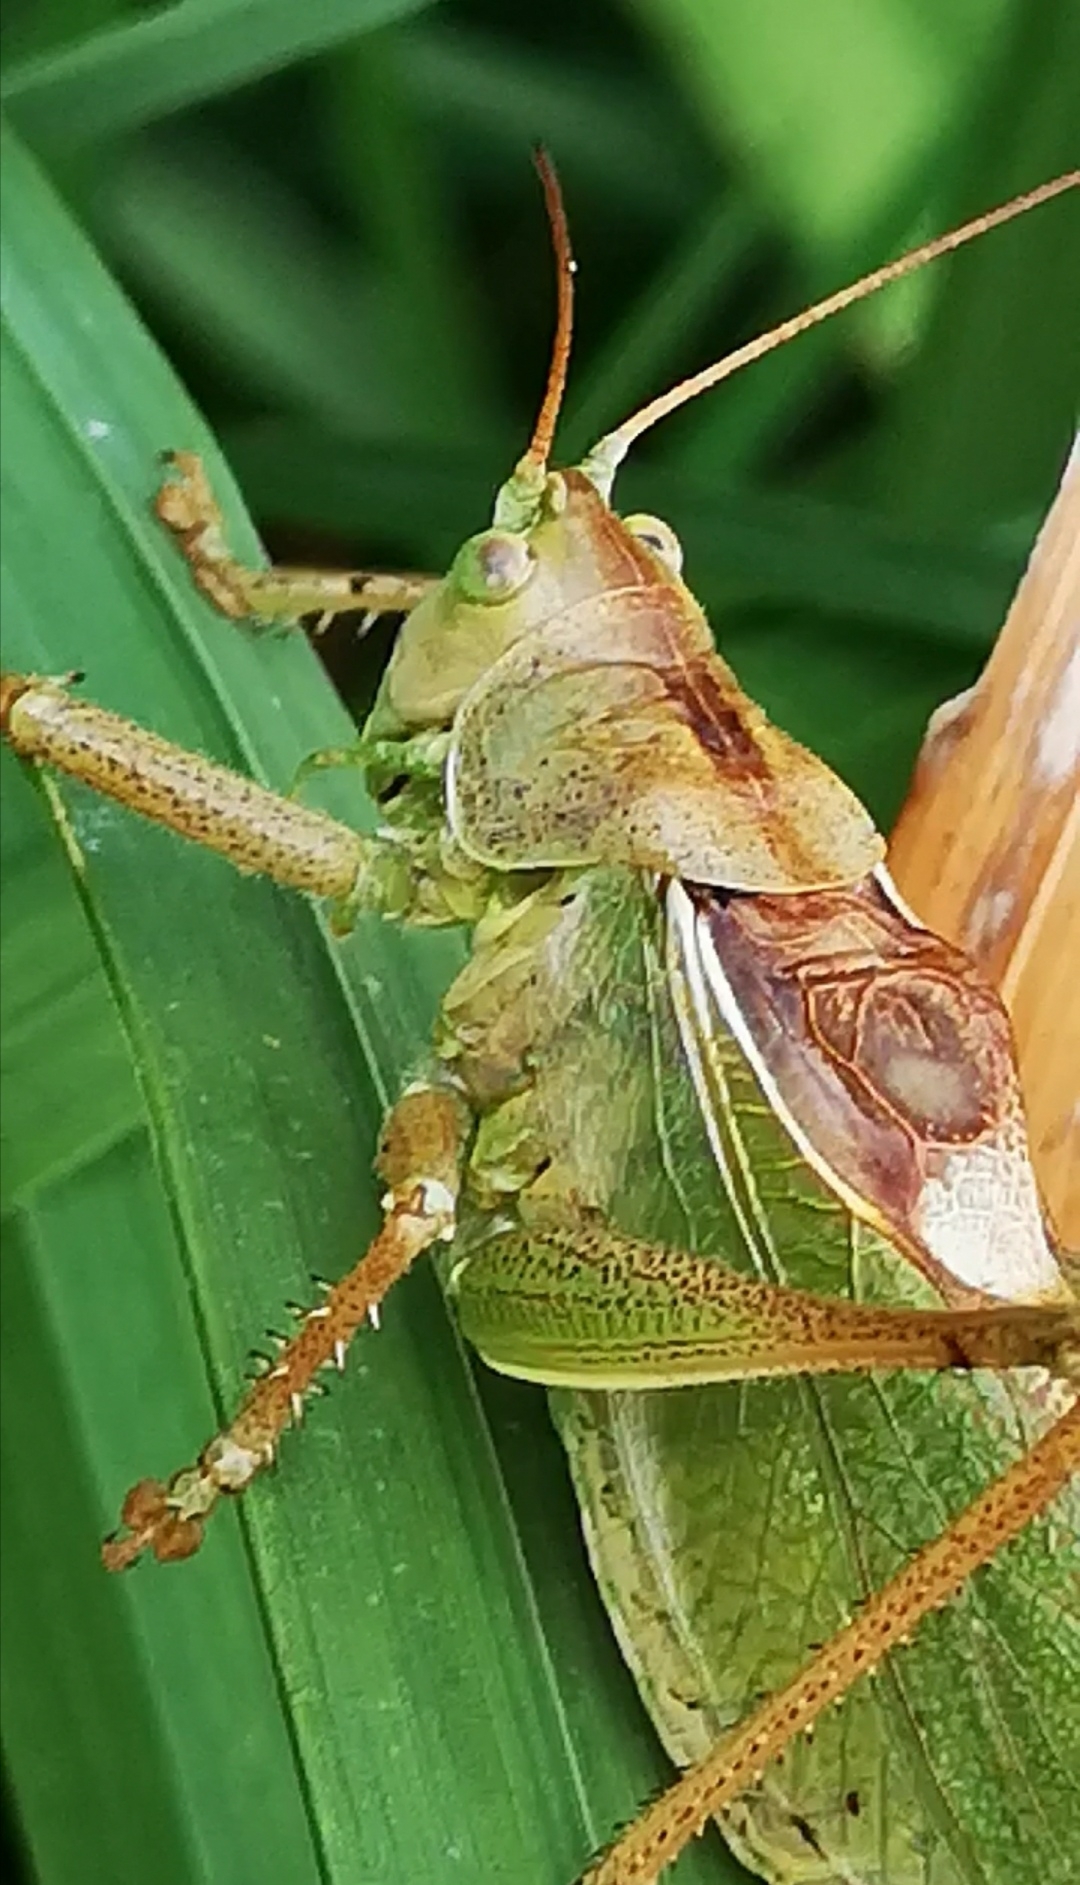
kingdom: Animalia
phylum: Arthropoda
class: Insecta
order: Orthoptera
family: Tettigoniidae
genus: Tettigonia
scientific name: Tettigonia cantans
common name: Upland green bush-cricket
